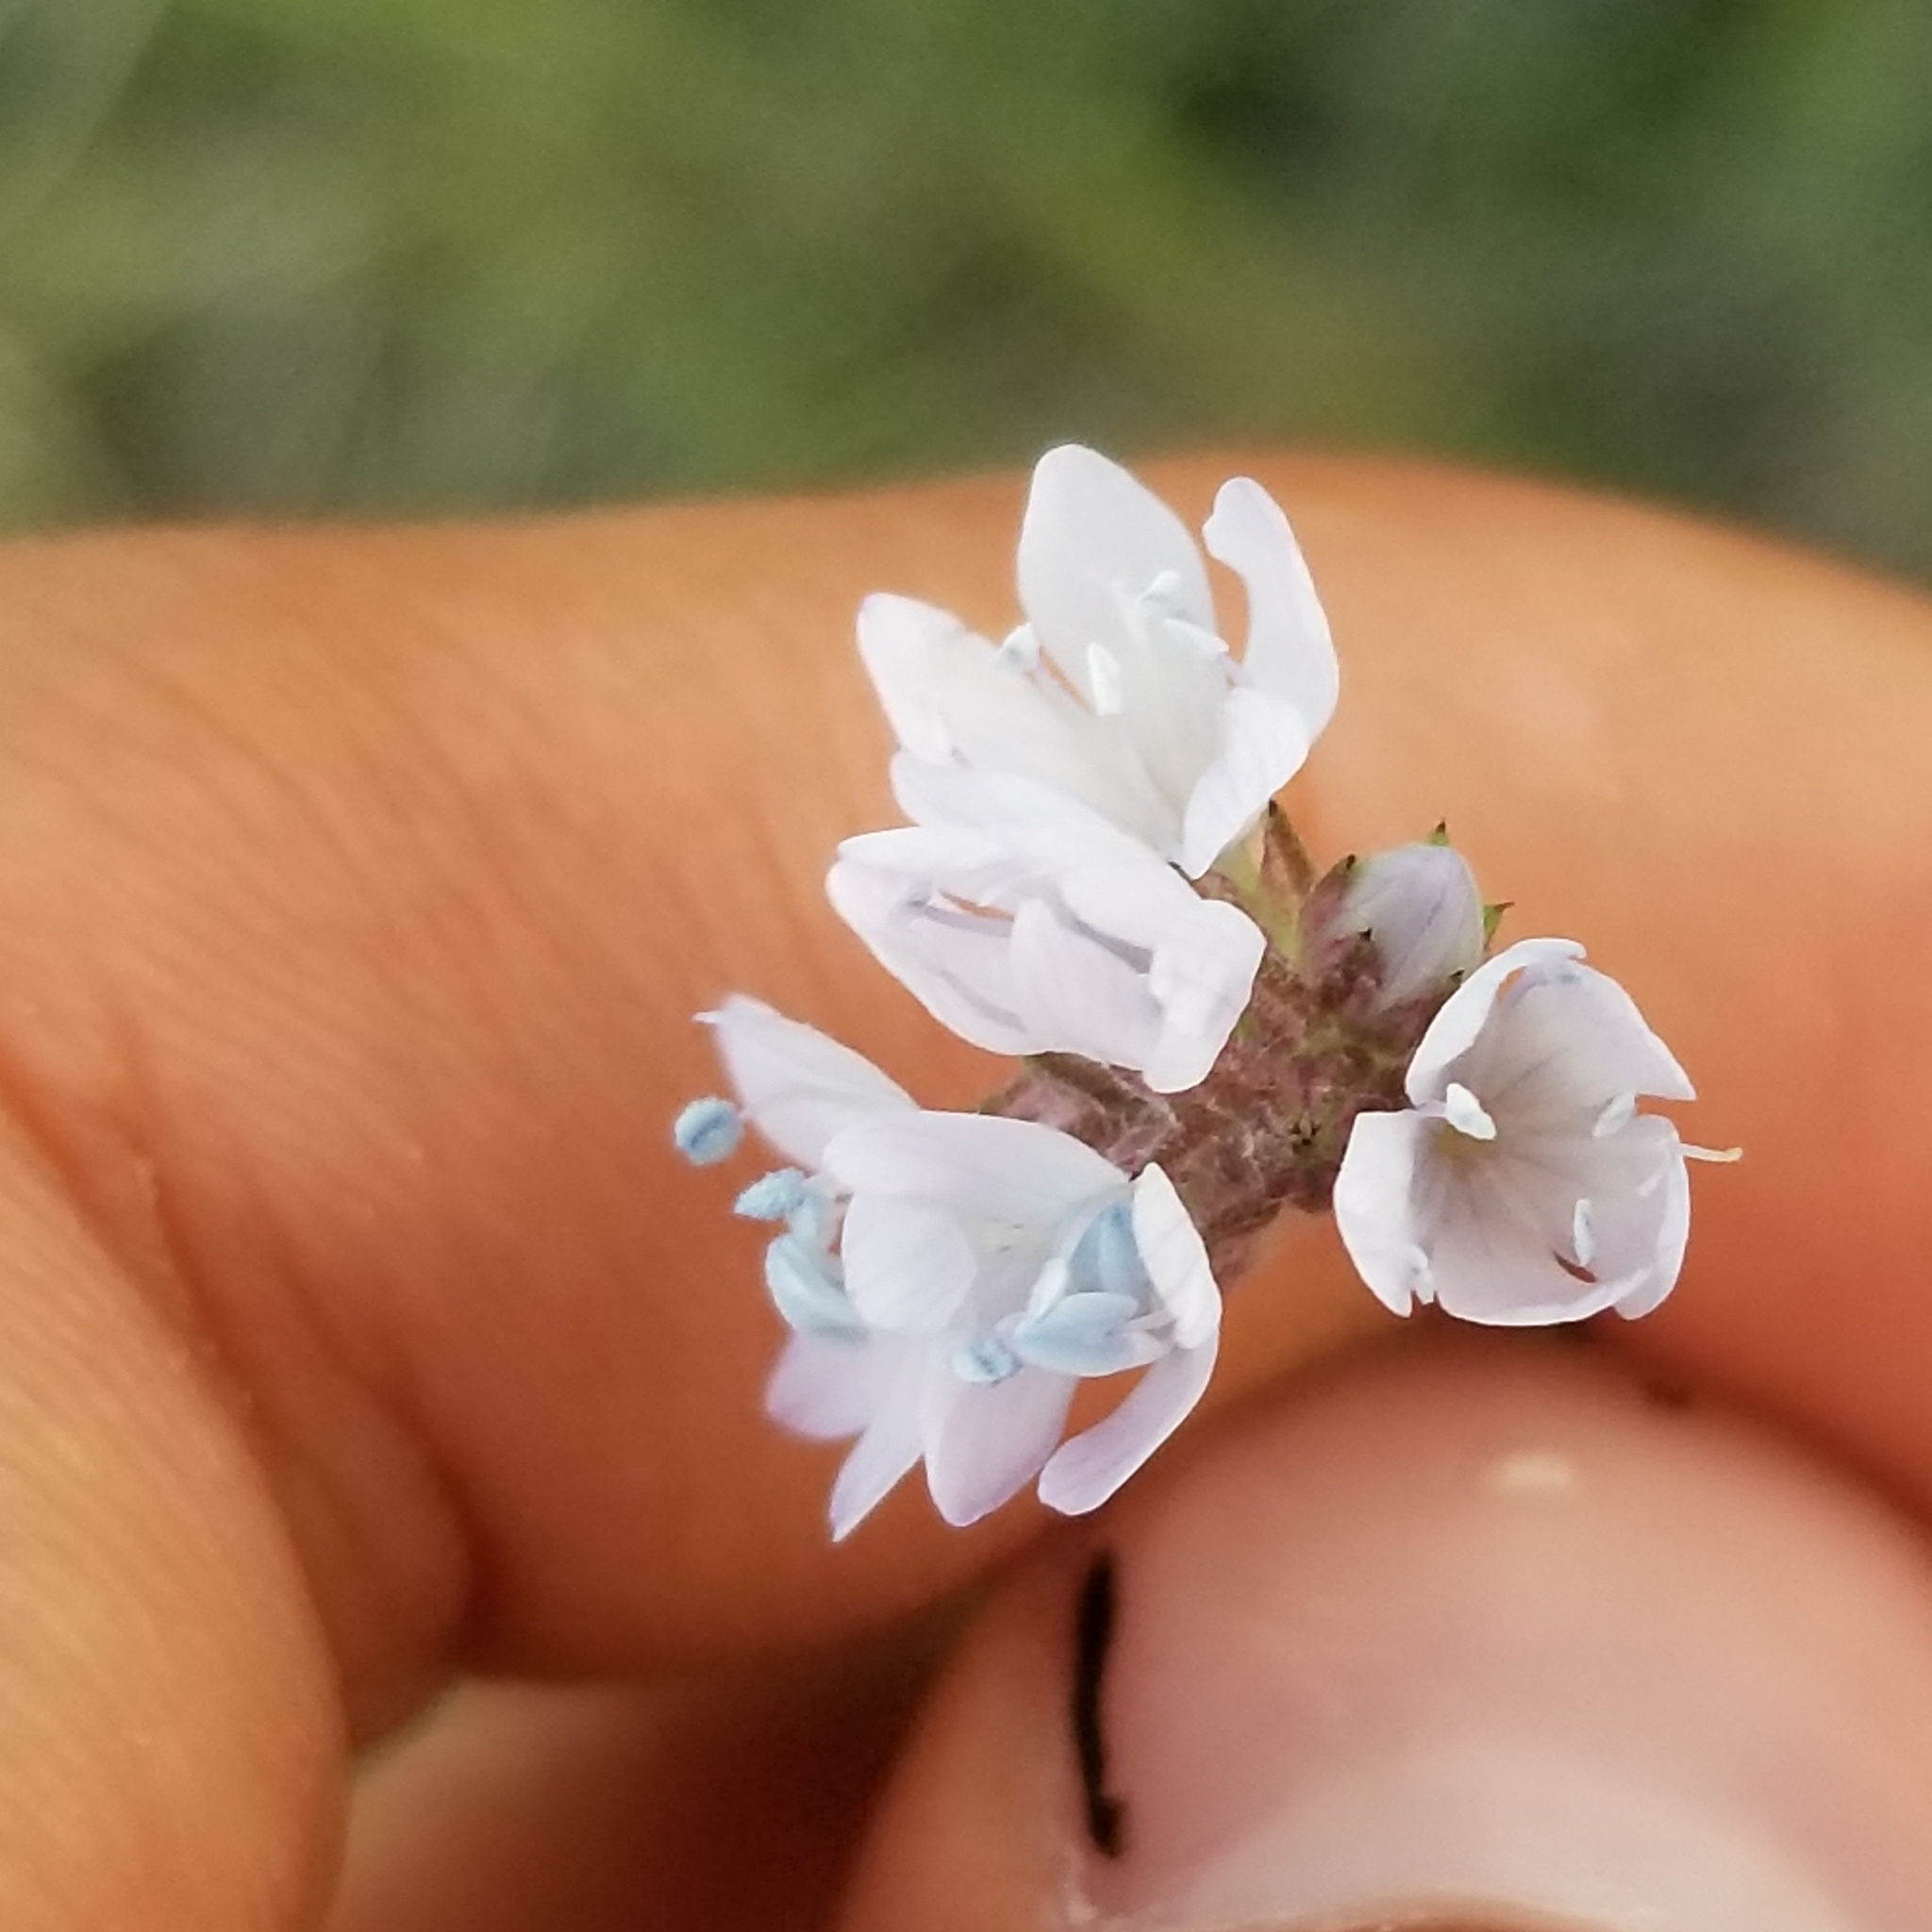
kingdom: Plantae
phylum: Tracheophyta
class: Magnoliopsida
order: Ericales
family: Polemoniaceae
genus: Gilia
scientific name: Gilia capitata
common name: Bluehead gilia
